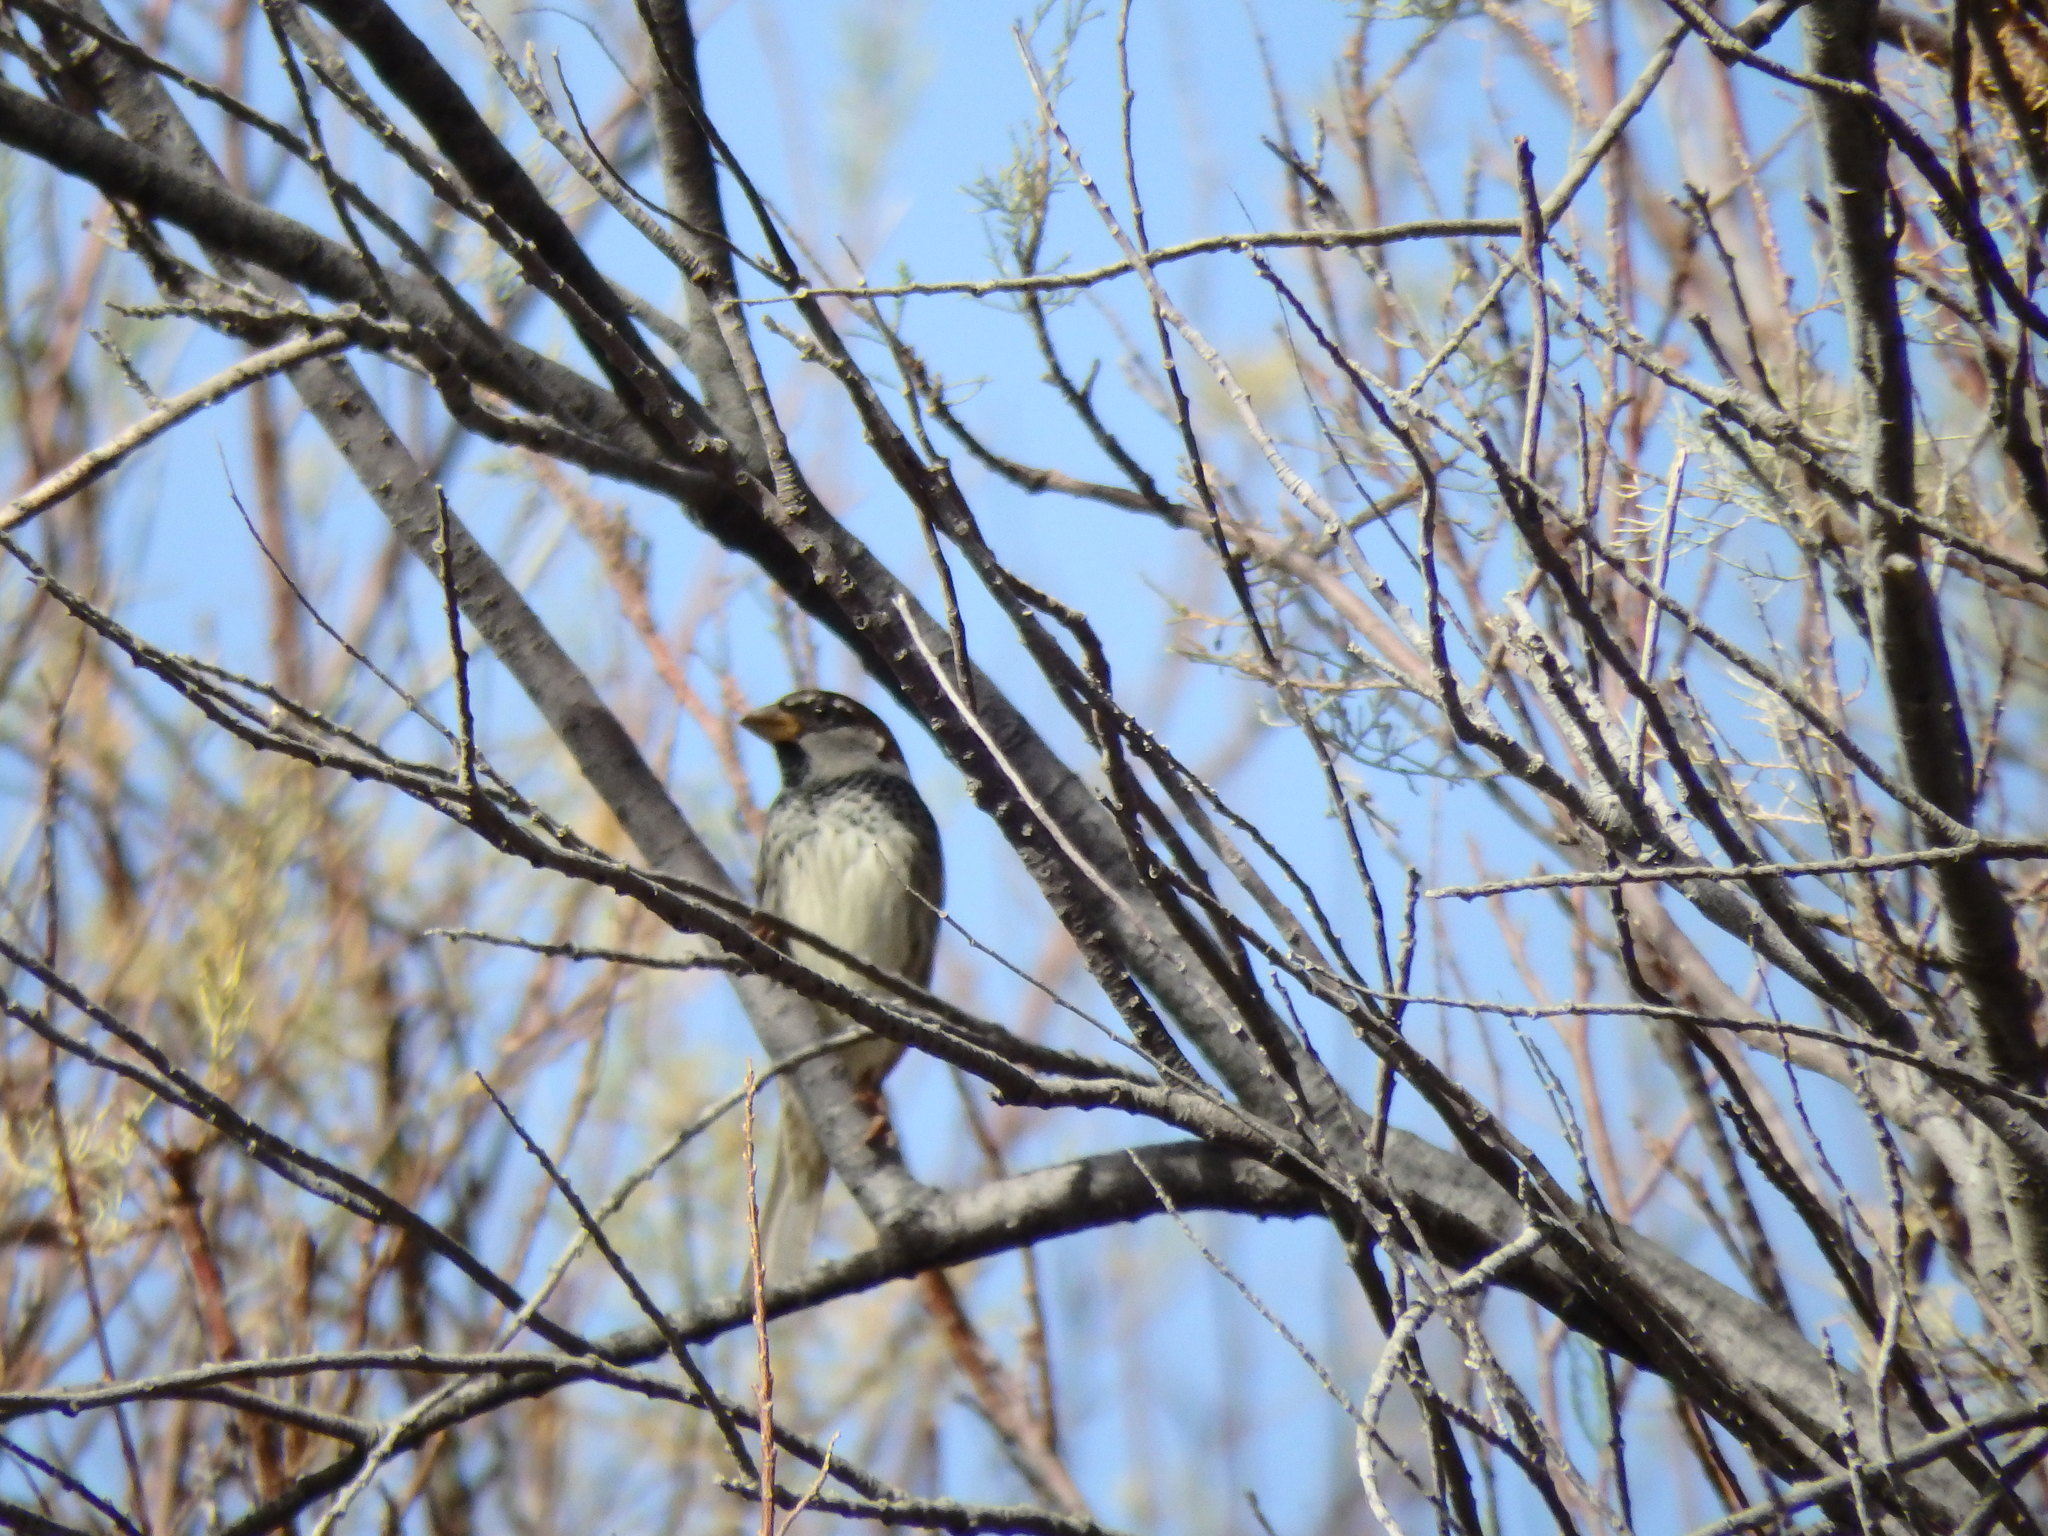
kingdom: Animalia
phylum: Chordata
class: Aves
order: Passeriformes
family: Passeridae
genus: Passer
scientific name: Passer hispaniolensis
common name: Spanish sparrow
